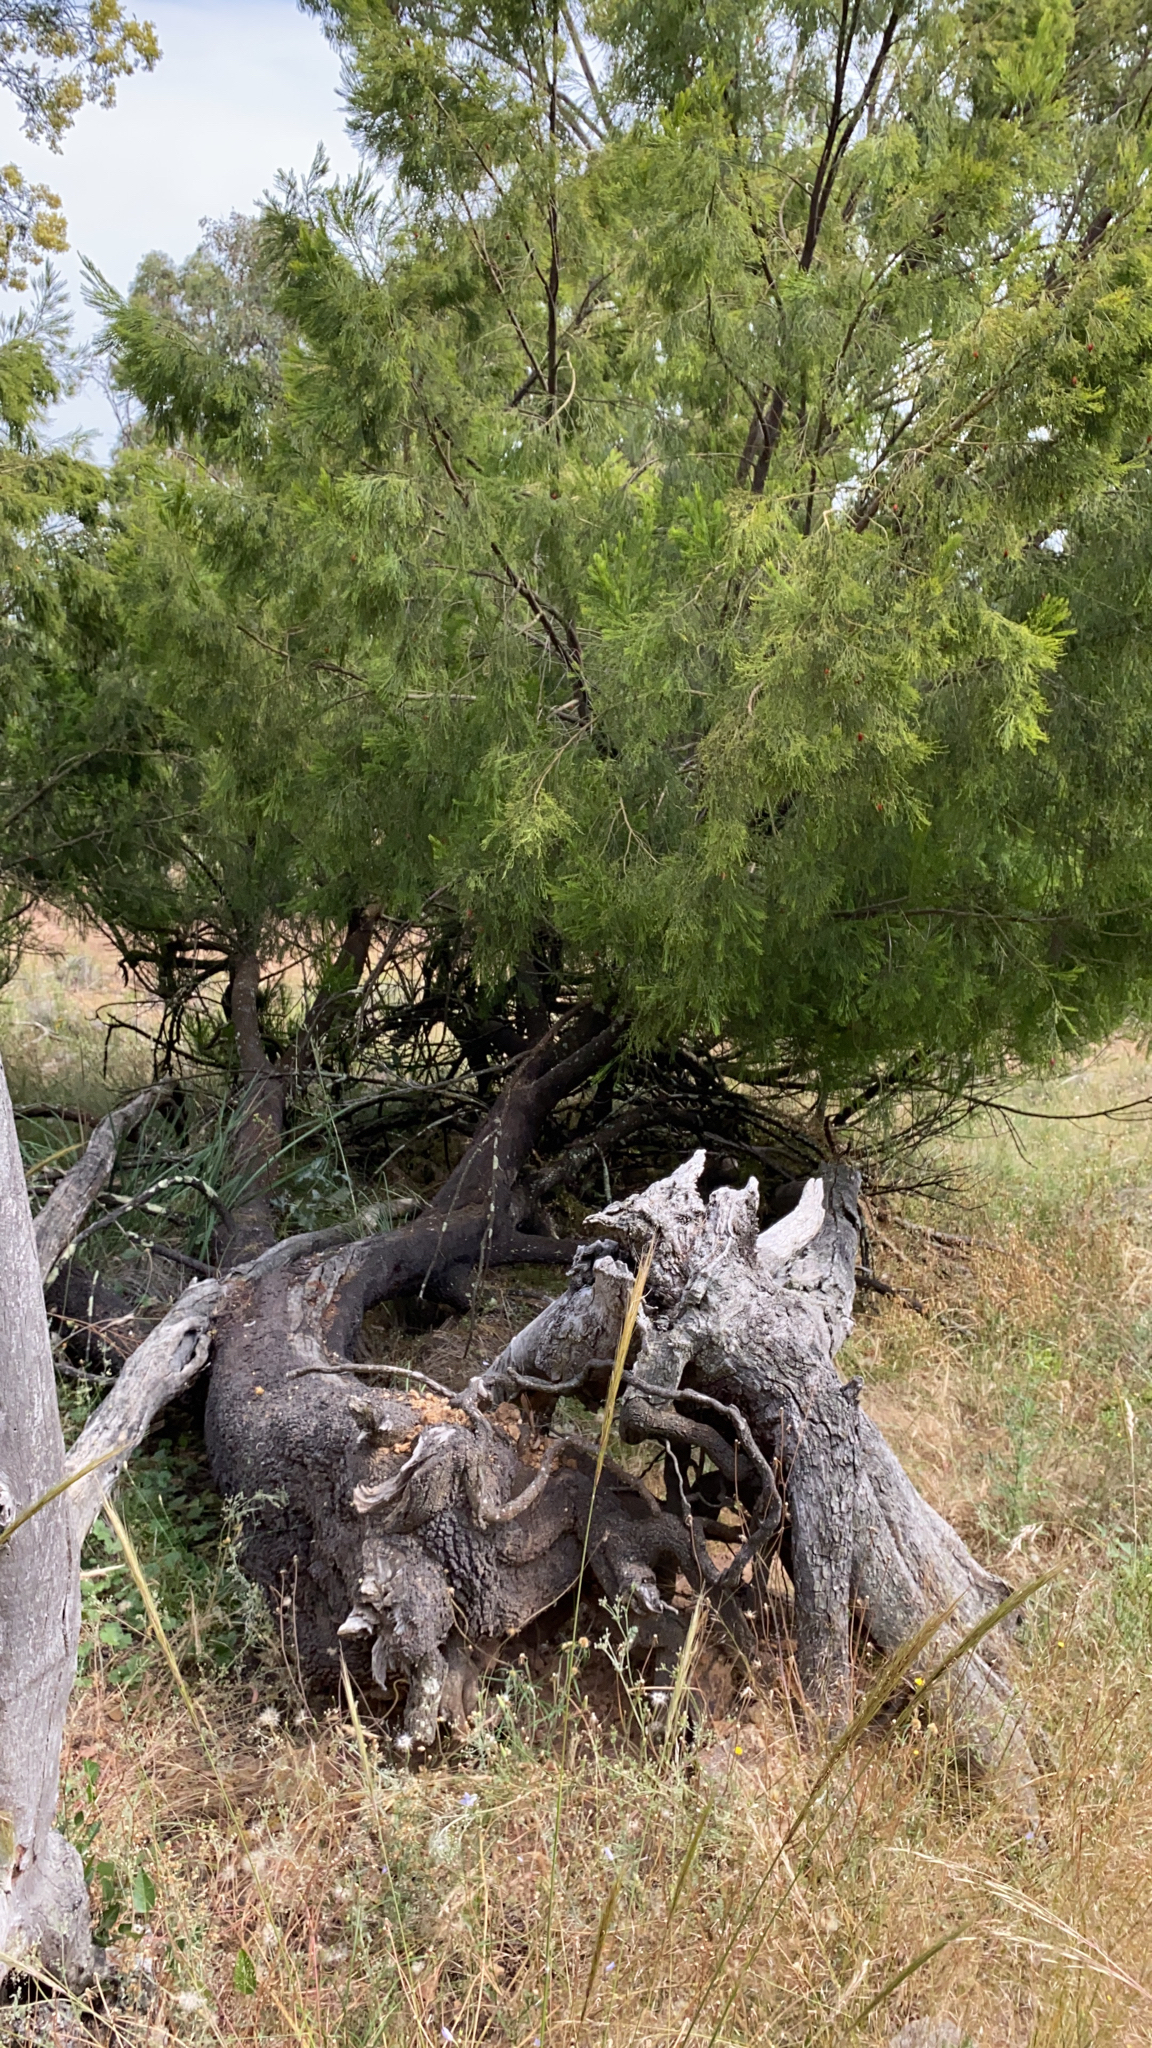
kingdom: Plantae
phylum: Tracheophyta
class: Magnoliopsida
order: Santalales
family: Santalaceae
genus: Exocarpos
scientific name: Exocarpos cupressiformis
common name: Cherry ballart
